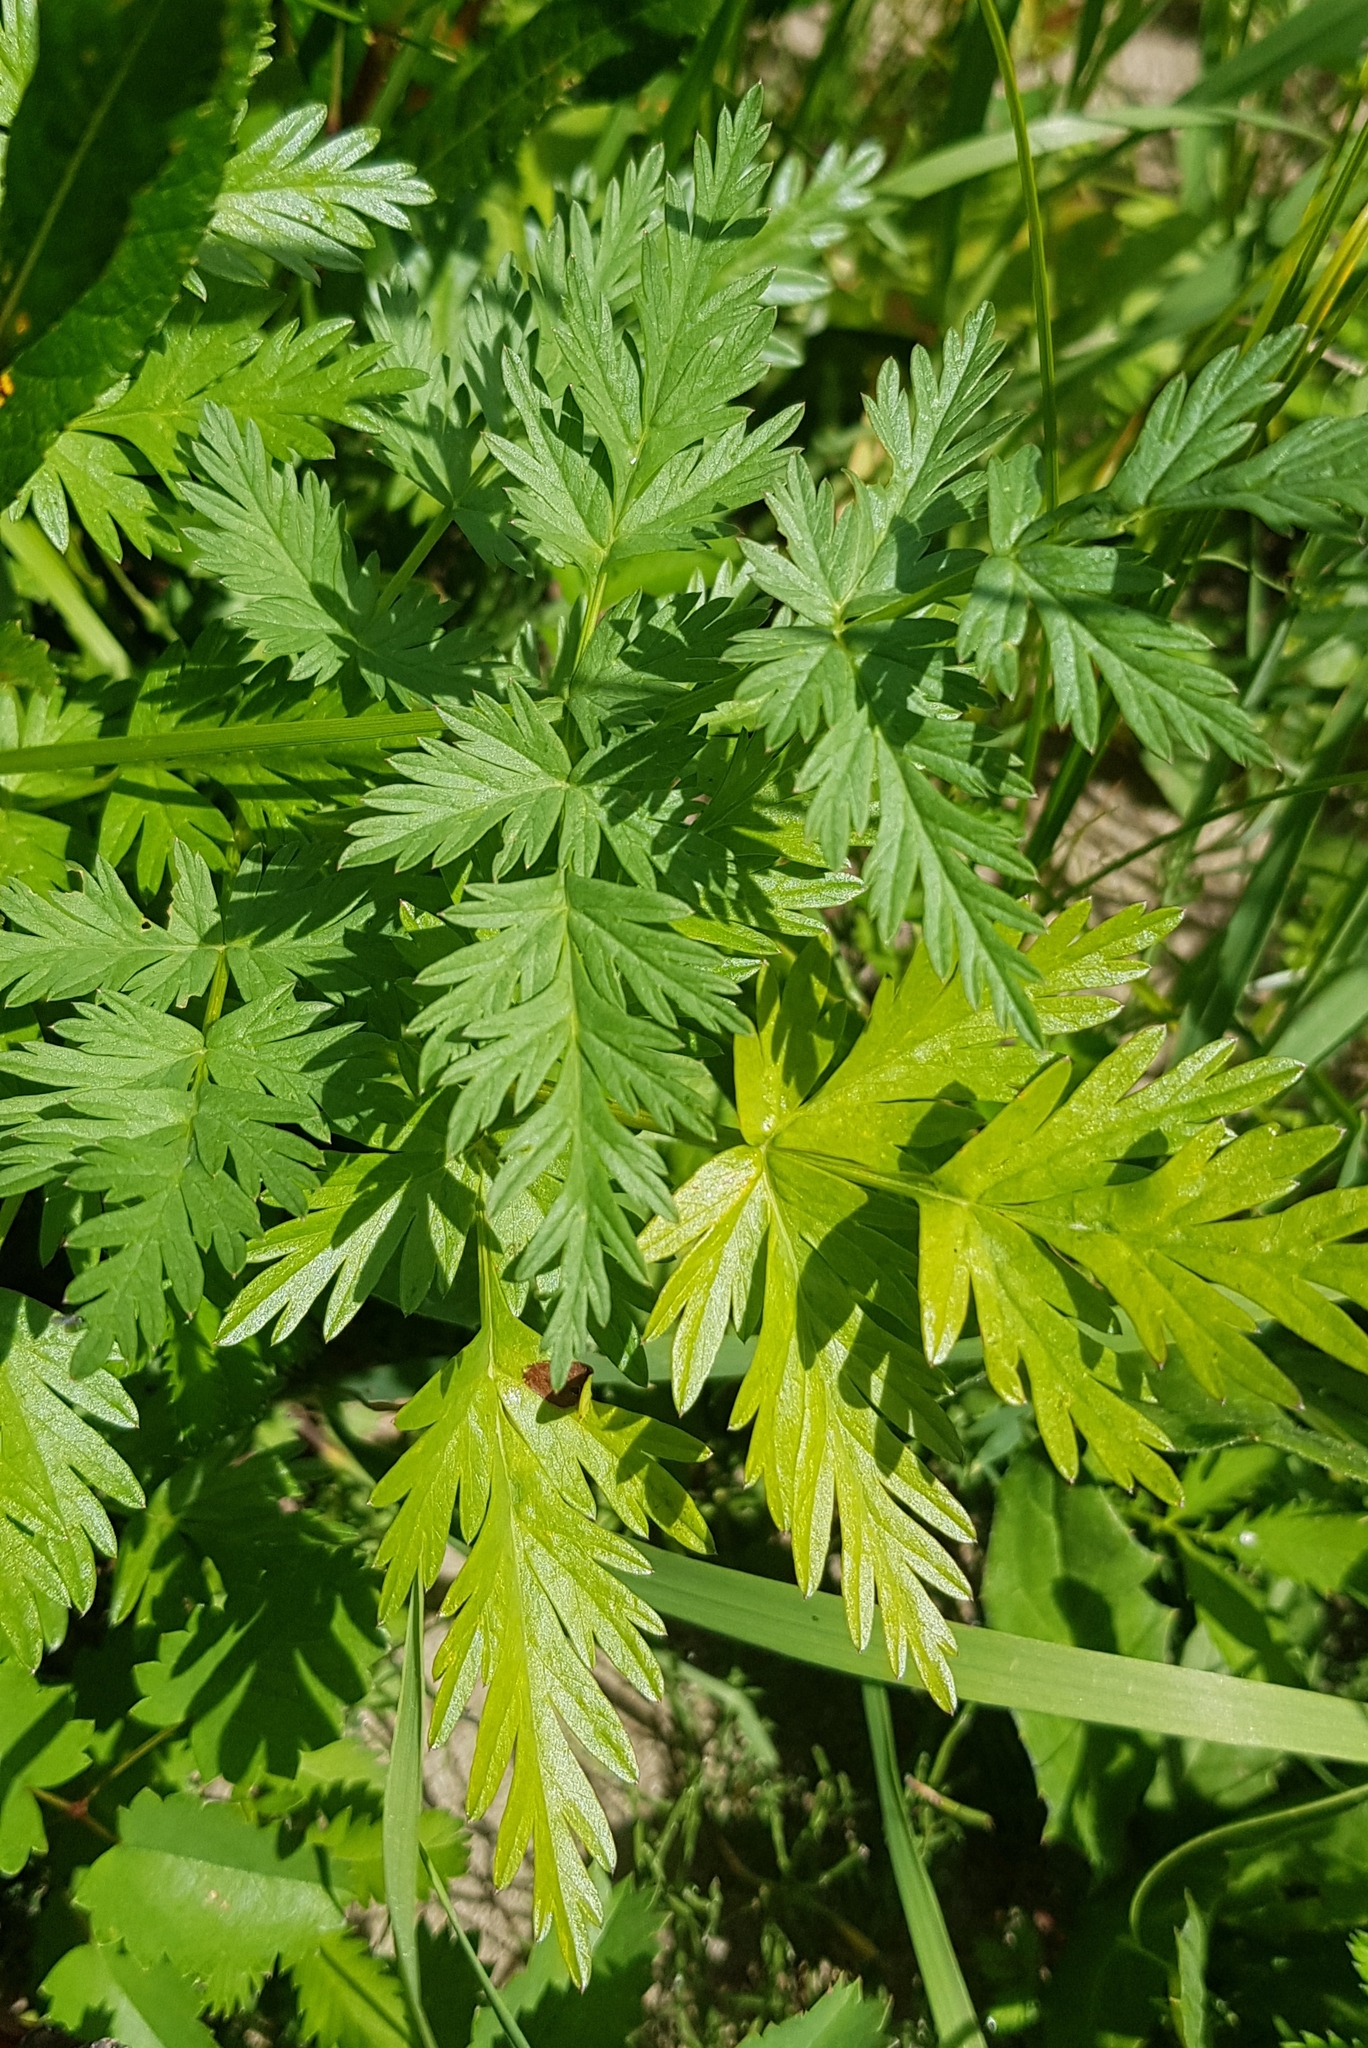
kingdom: Plantae
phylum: Tracheophyta
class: Magnoliopsida
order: Apiales
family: Apiaceae
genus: Conioselinum
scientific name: Conioselinum tataricum
